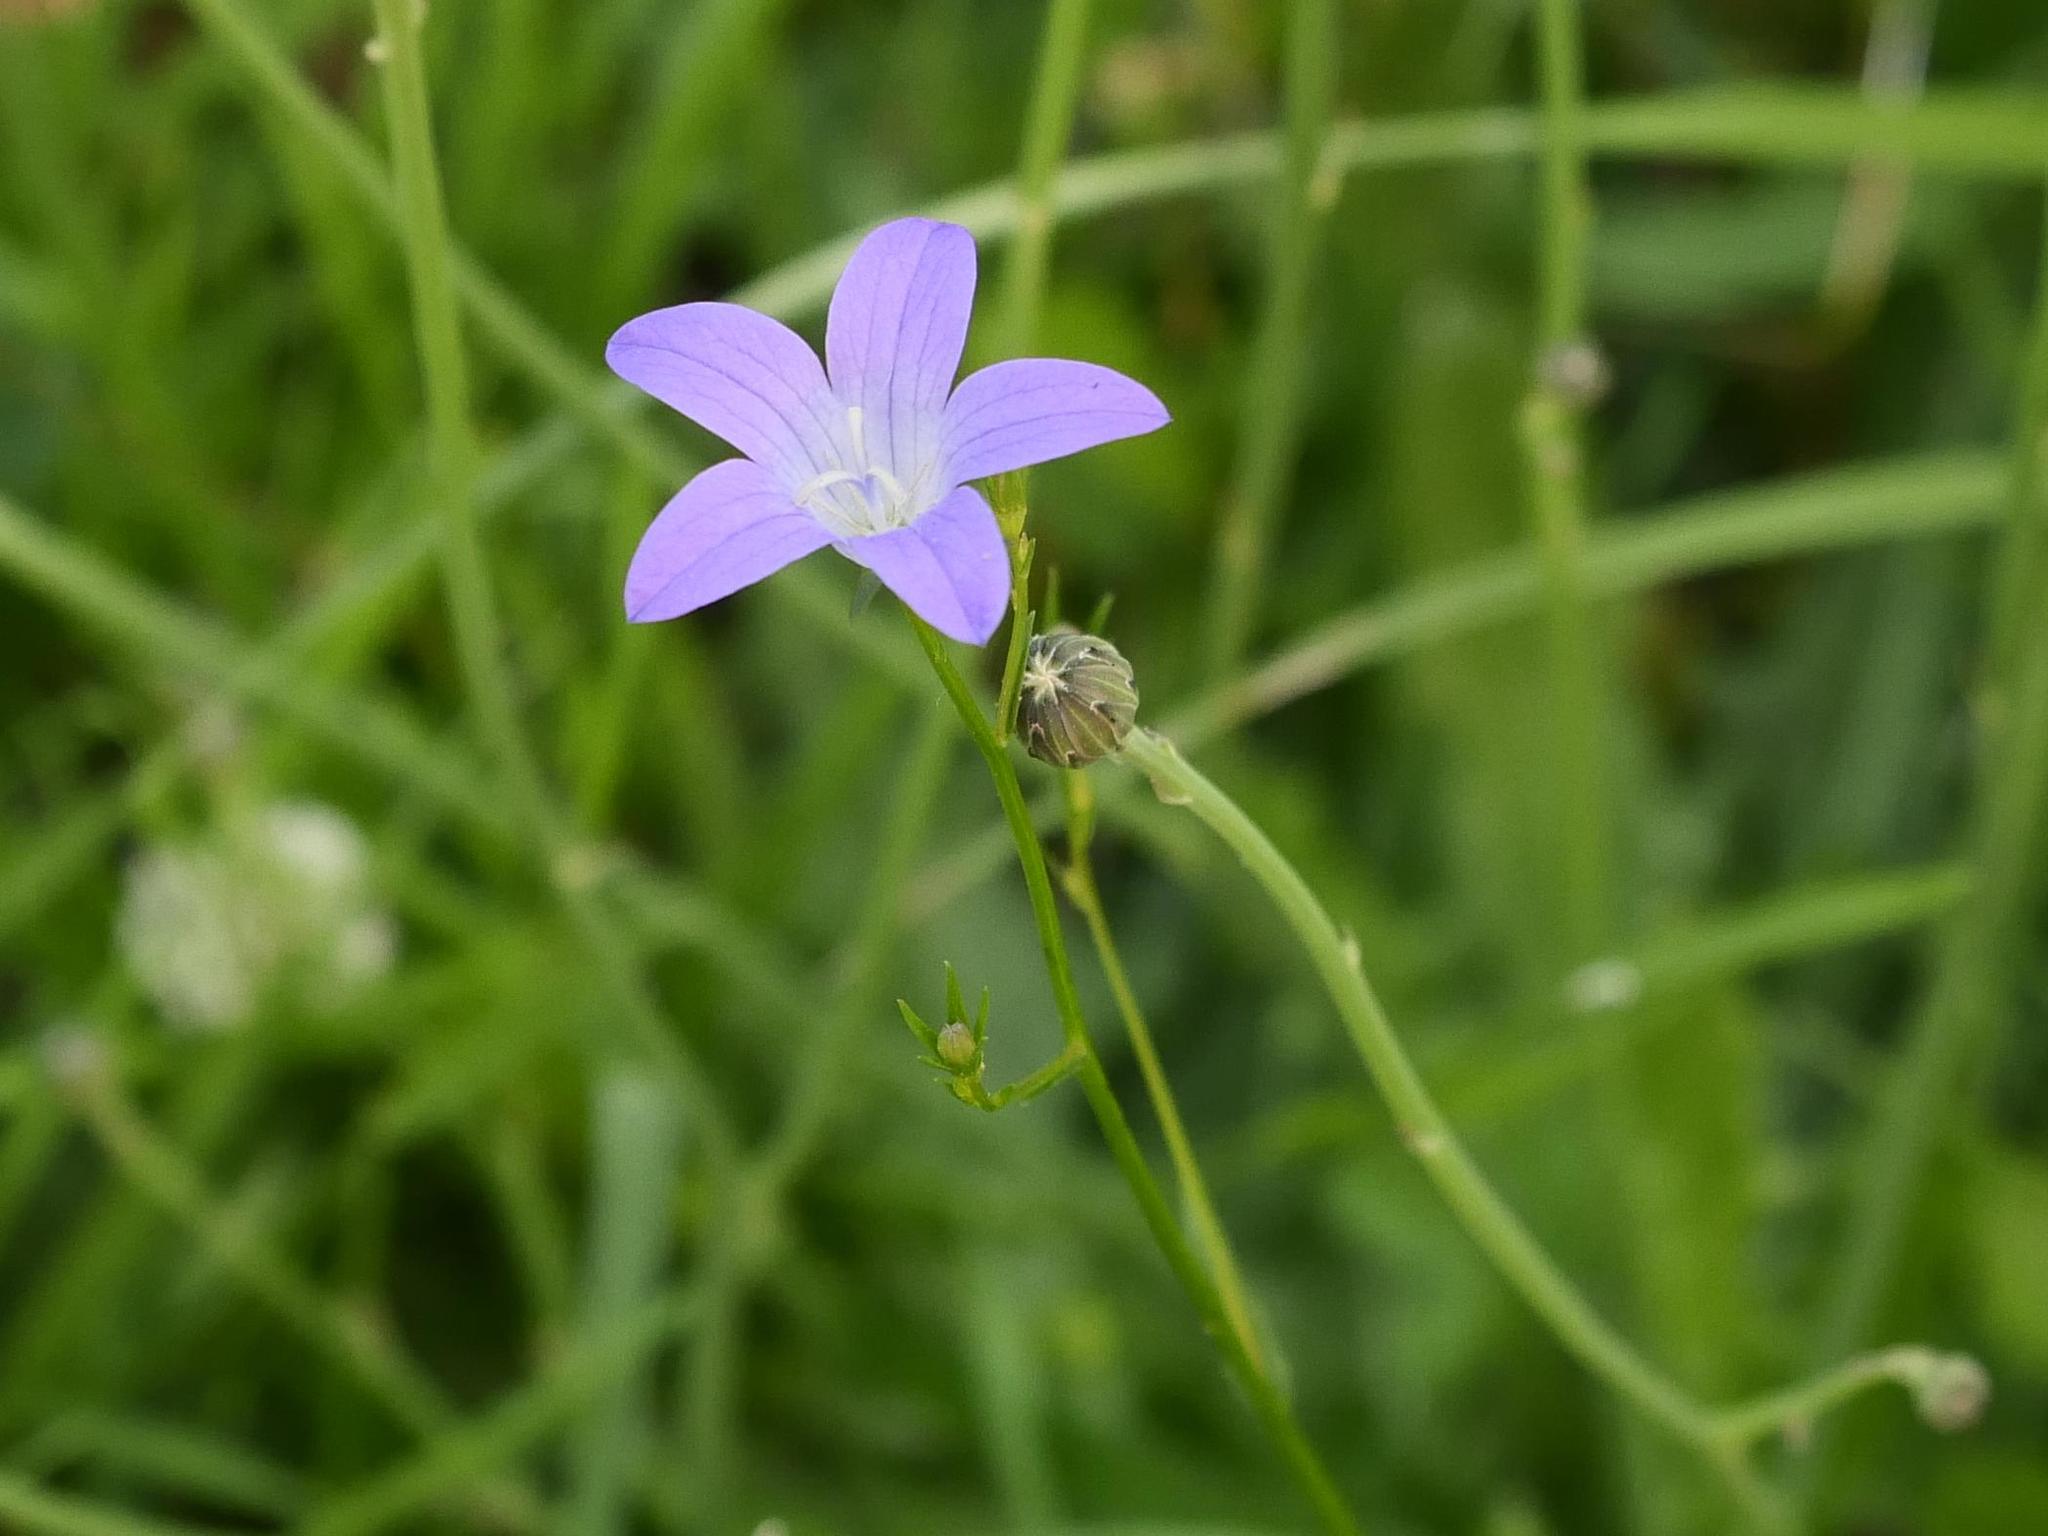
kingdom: Plantae
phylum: Tracheophyta
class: Magnoliopsida
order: Asterales
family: Campanulaceae
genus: Campanula
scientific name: Campanula patula
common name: Spreading bellflower
